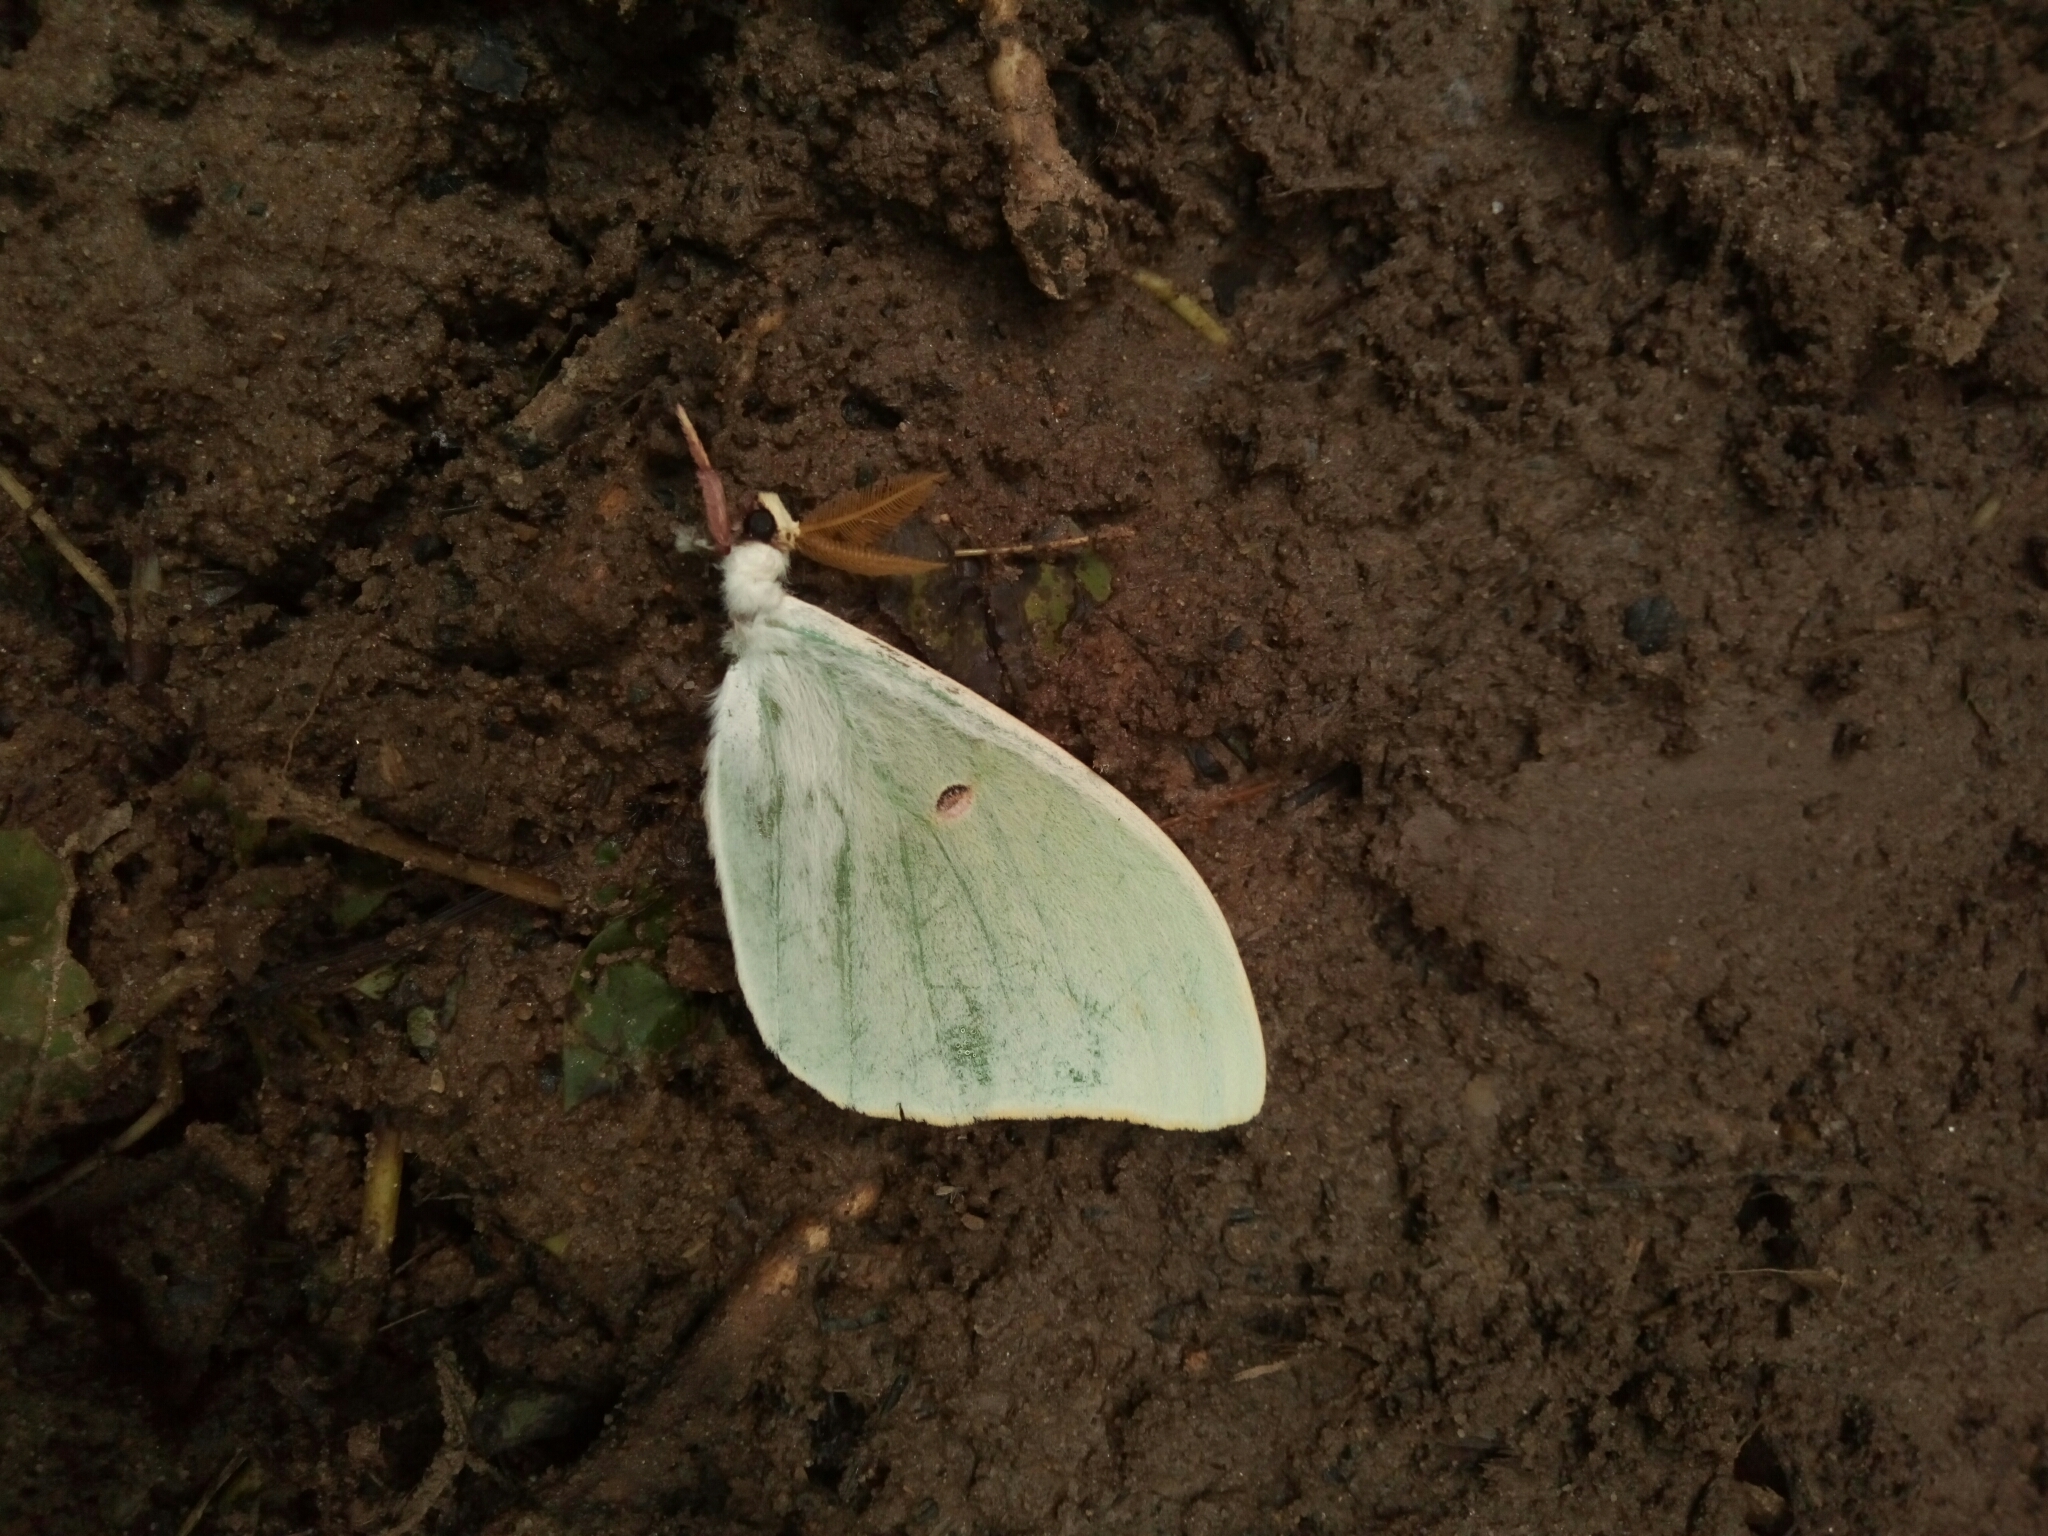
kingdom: Animalia
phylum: Arthropoda
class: Insecta
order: Lepidoptera
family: Saturniidae
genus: Actias
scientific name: Actias luna
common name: Luna moth
